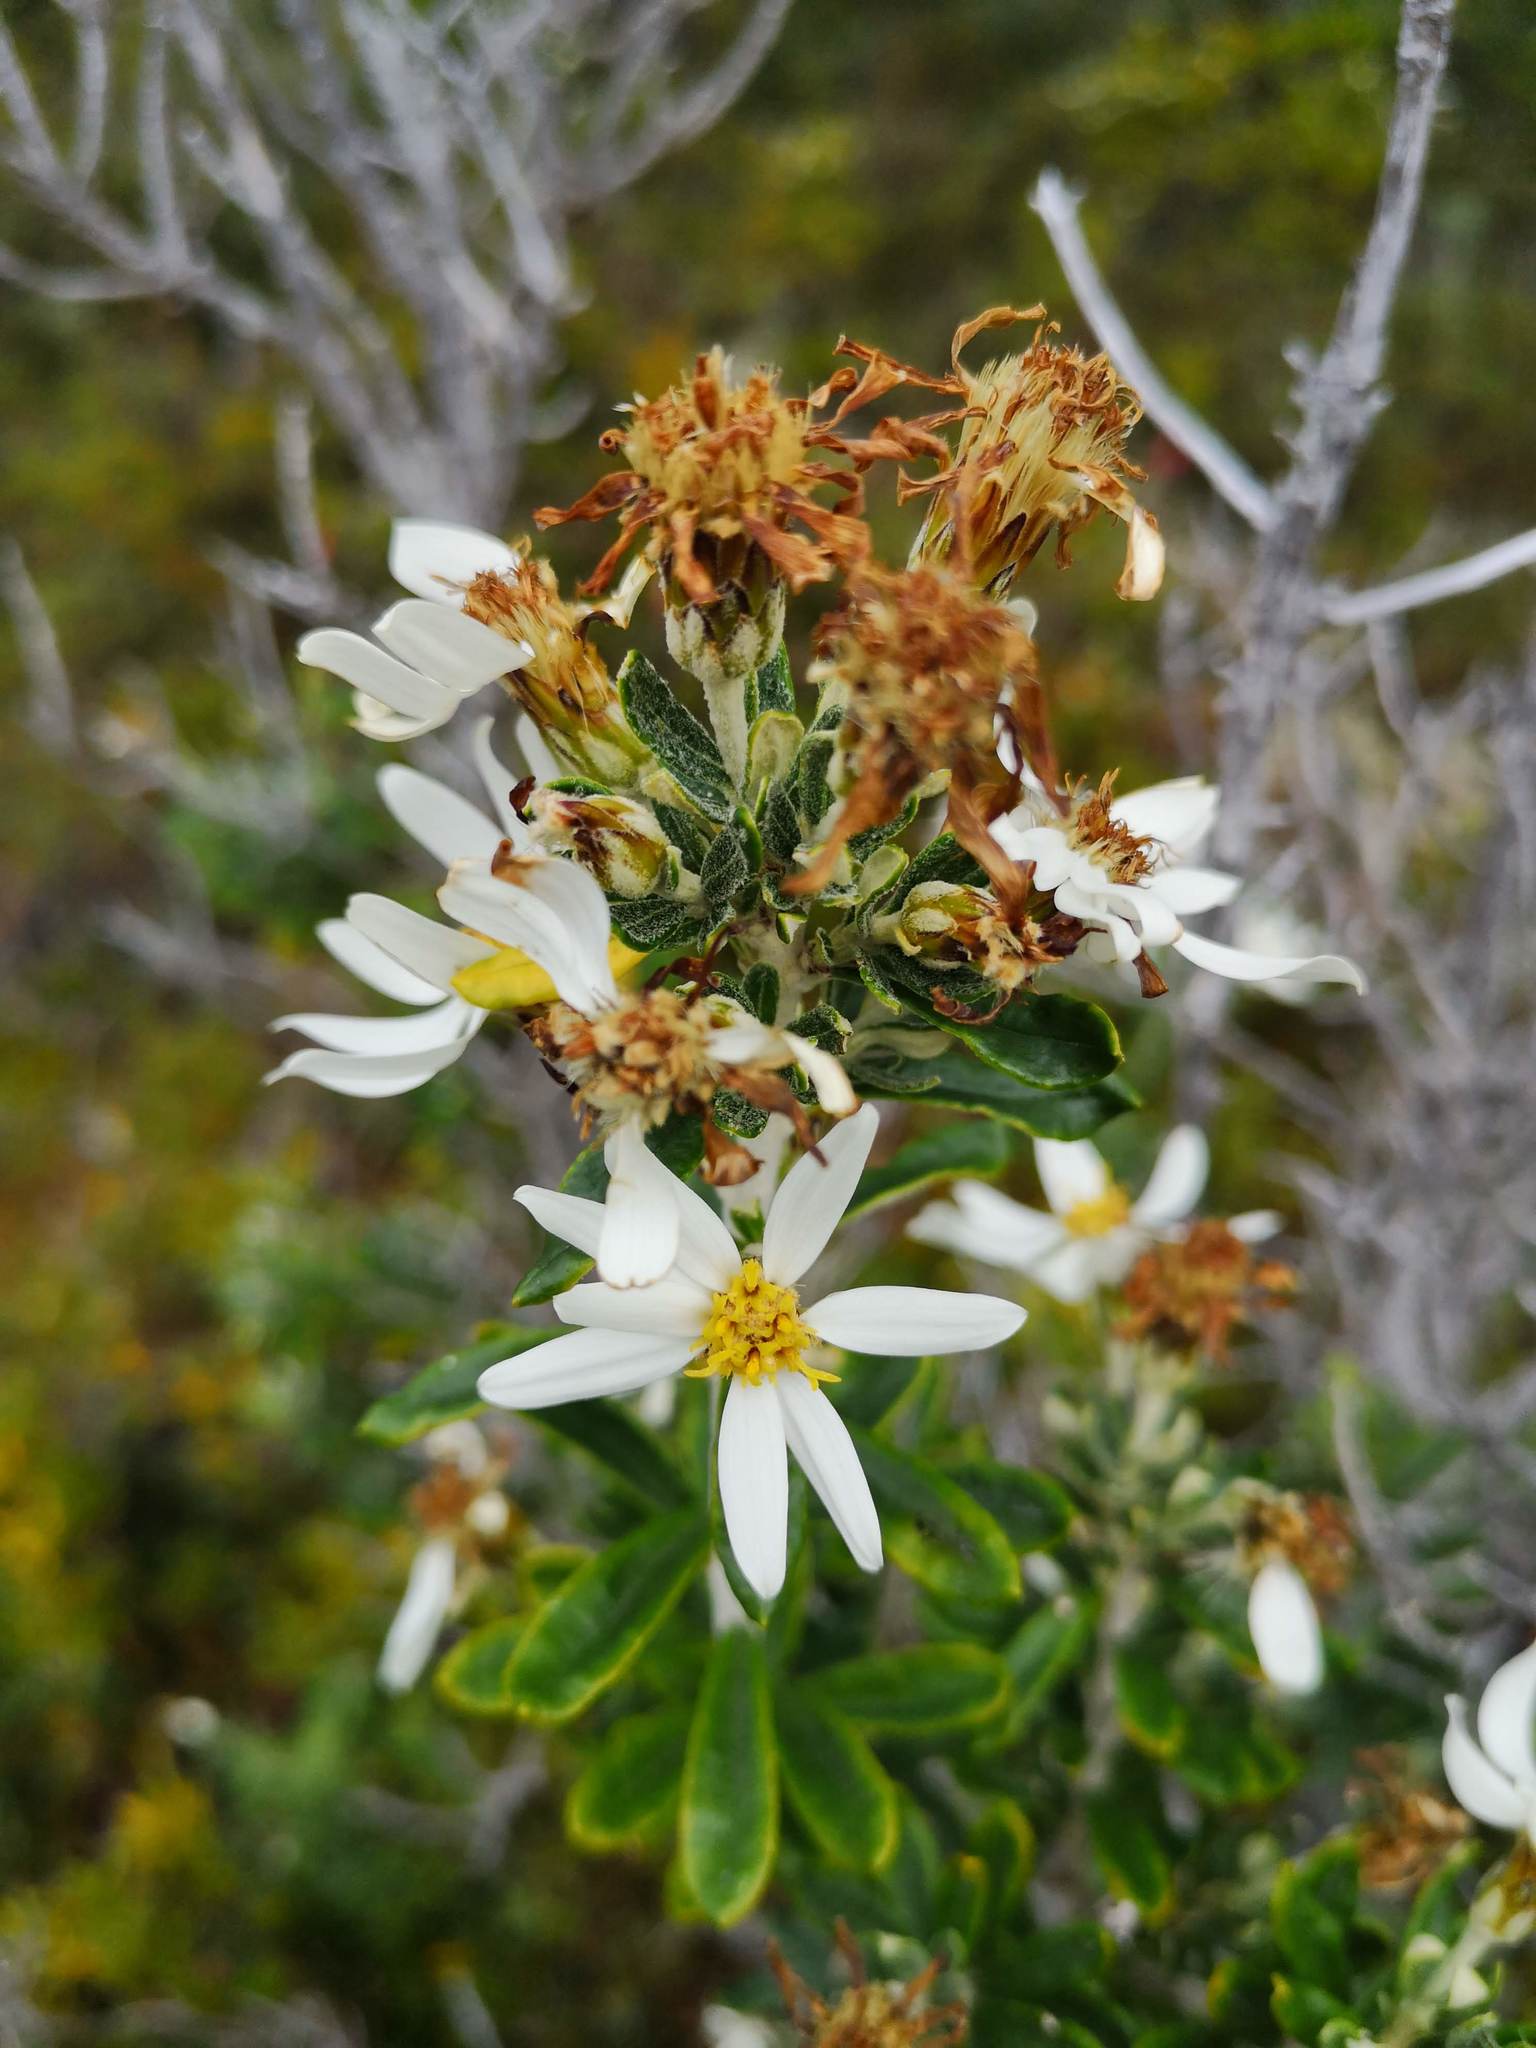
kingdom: Plantae
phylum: Tracheophyta
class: Magnoliopsida
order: Asterales
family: Asteraceae
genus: Chiliotrichum
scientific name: Chiliotrichum diffusum
